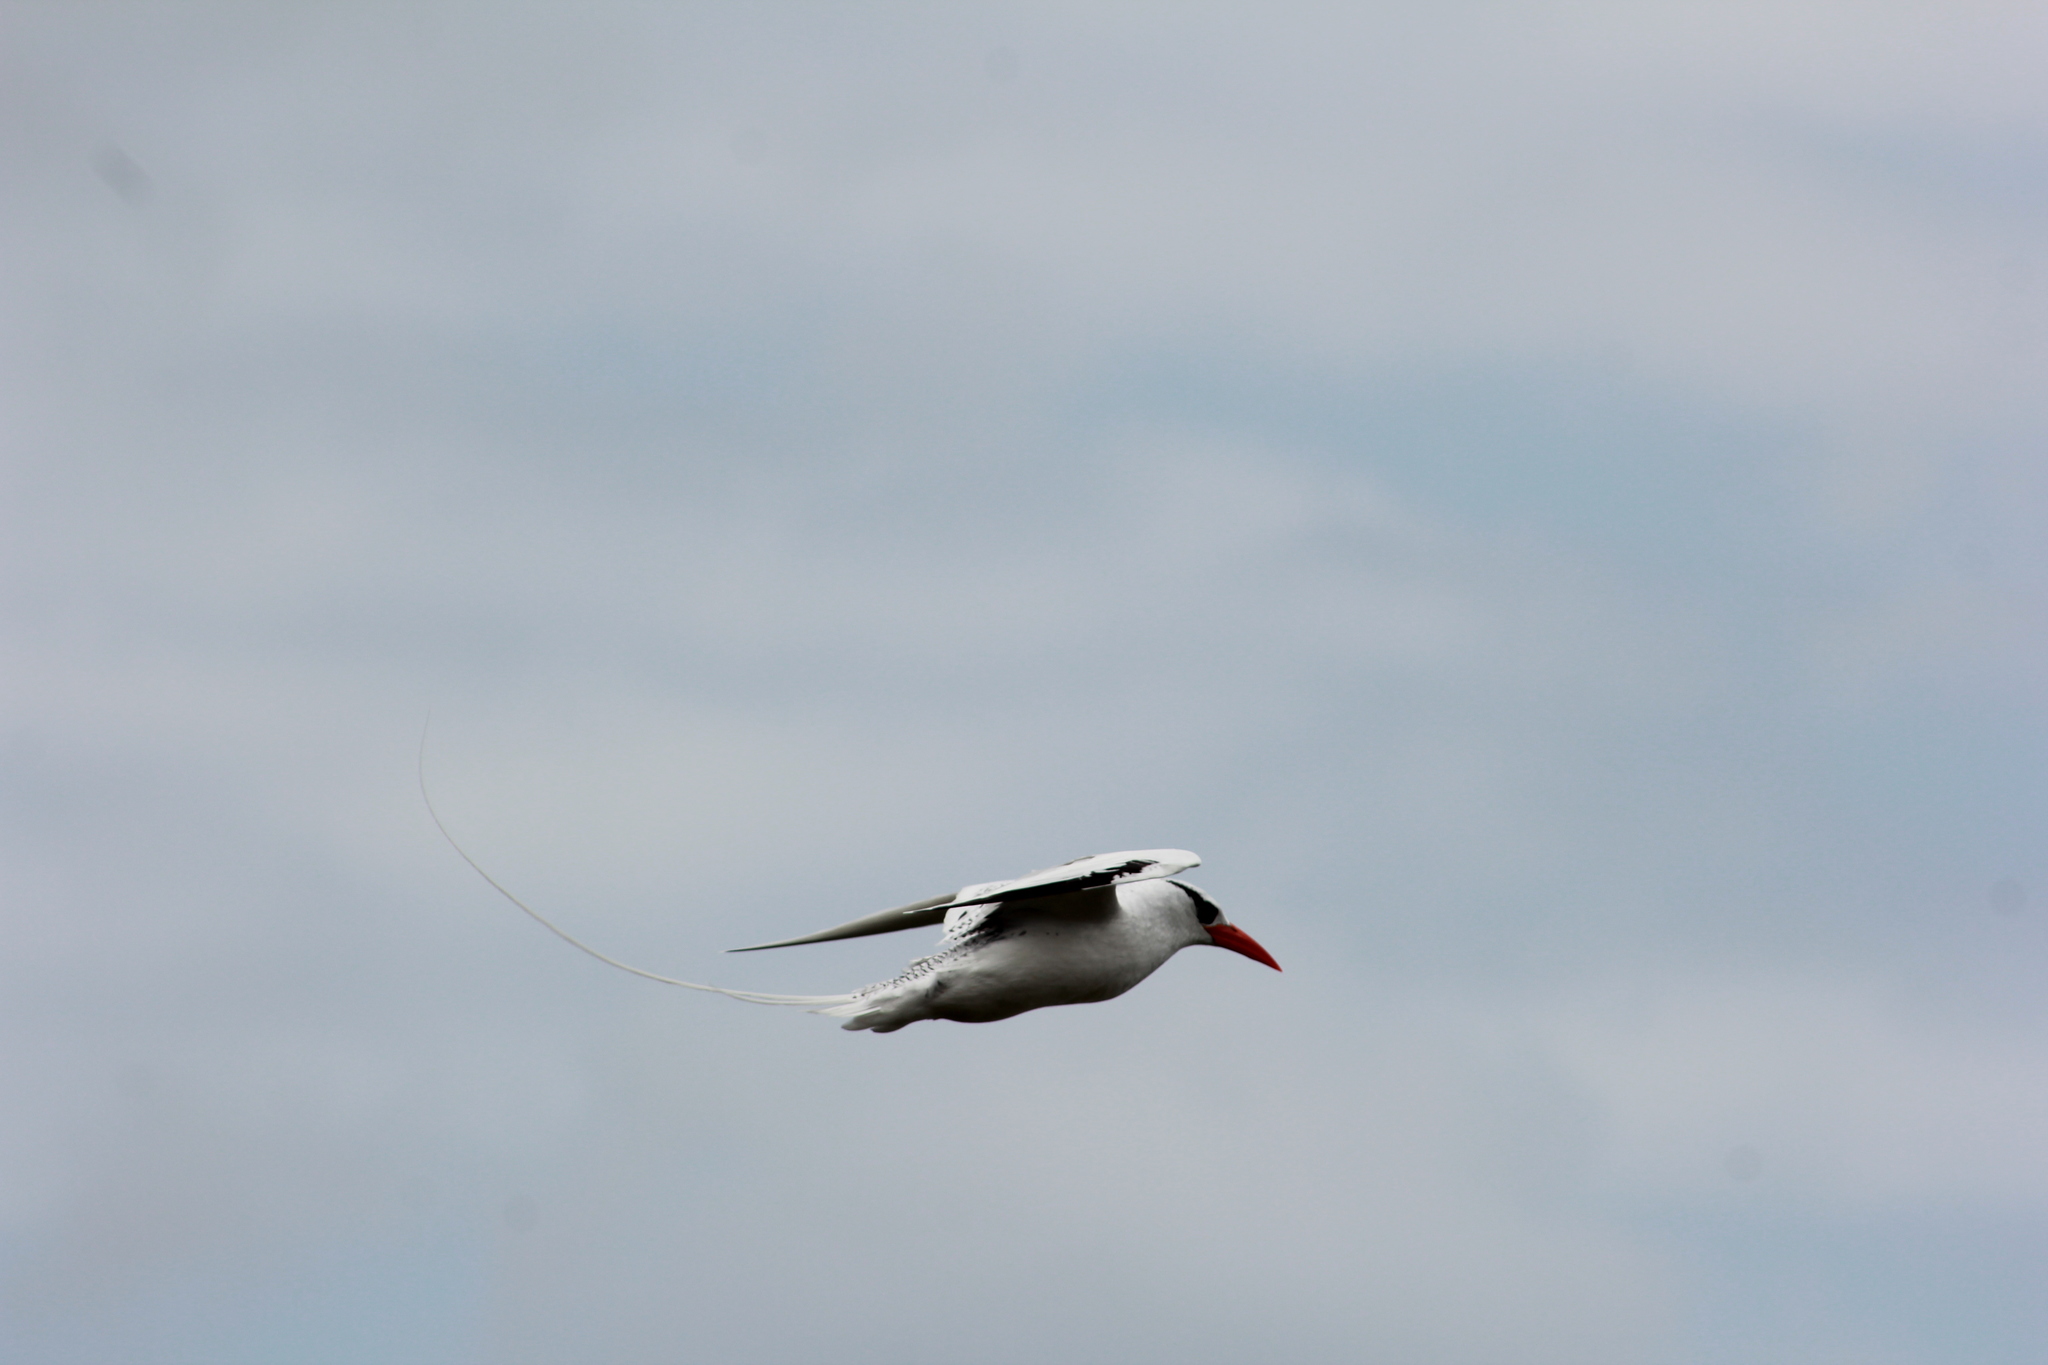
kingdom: Animalia
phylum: Chordata
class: Aves
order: Phaethontiformes
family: Phaethontidae
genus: Phaethon
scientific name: Phaethon aethereus
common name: Red-billed tropicbird
